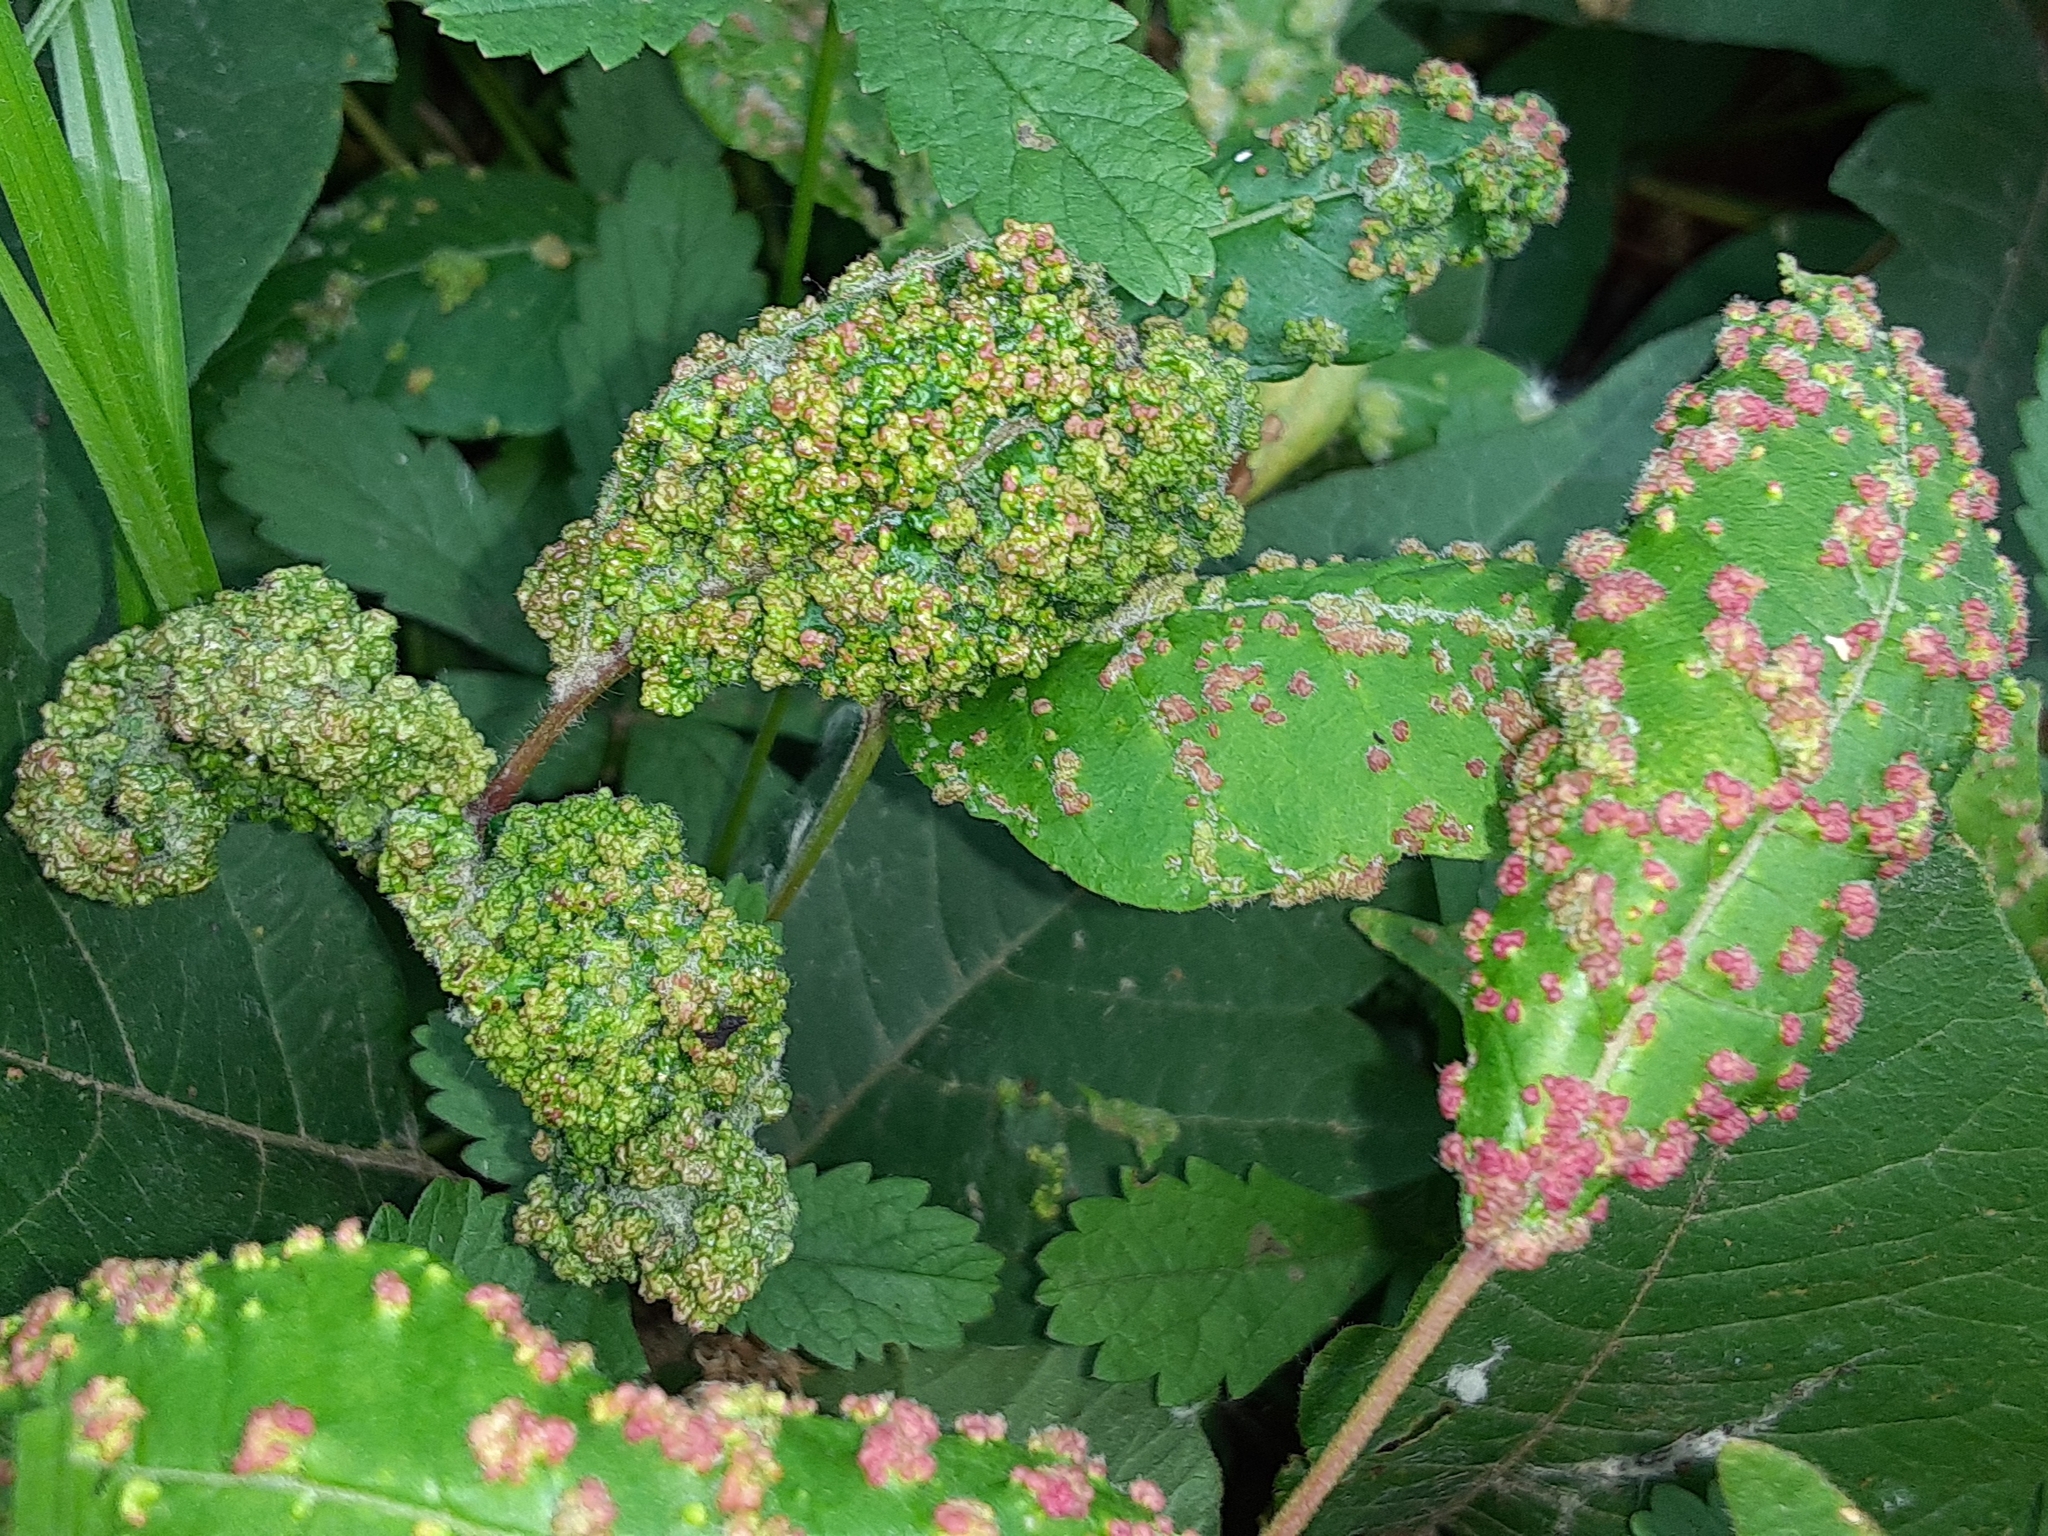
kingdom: Animalia
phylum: Arthropoda
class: Arachnida
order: Trombidiformes
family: Eriophyidae
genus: Aculops
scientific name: Aculops
